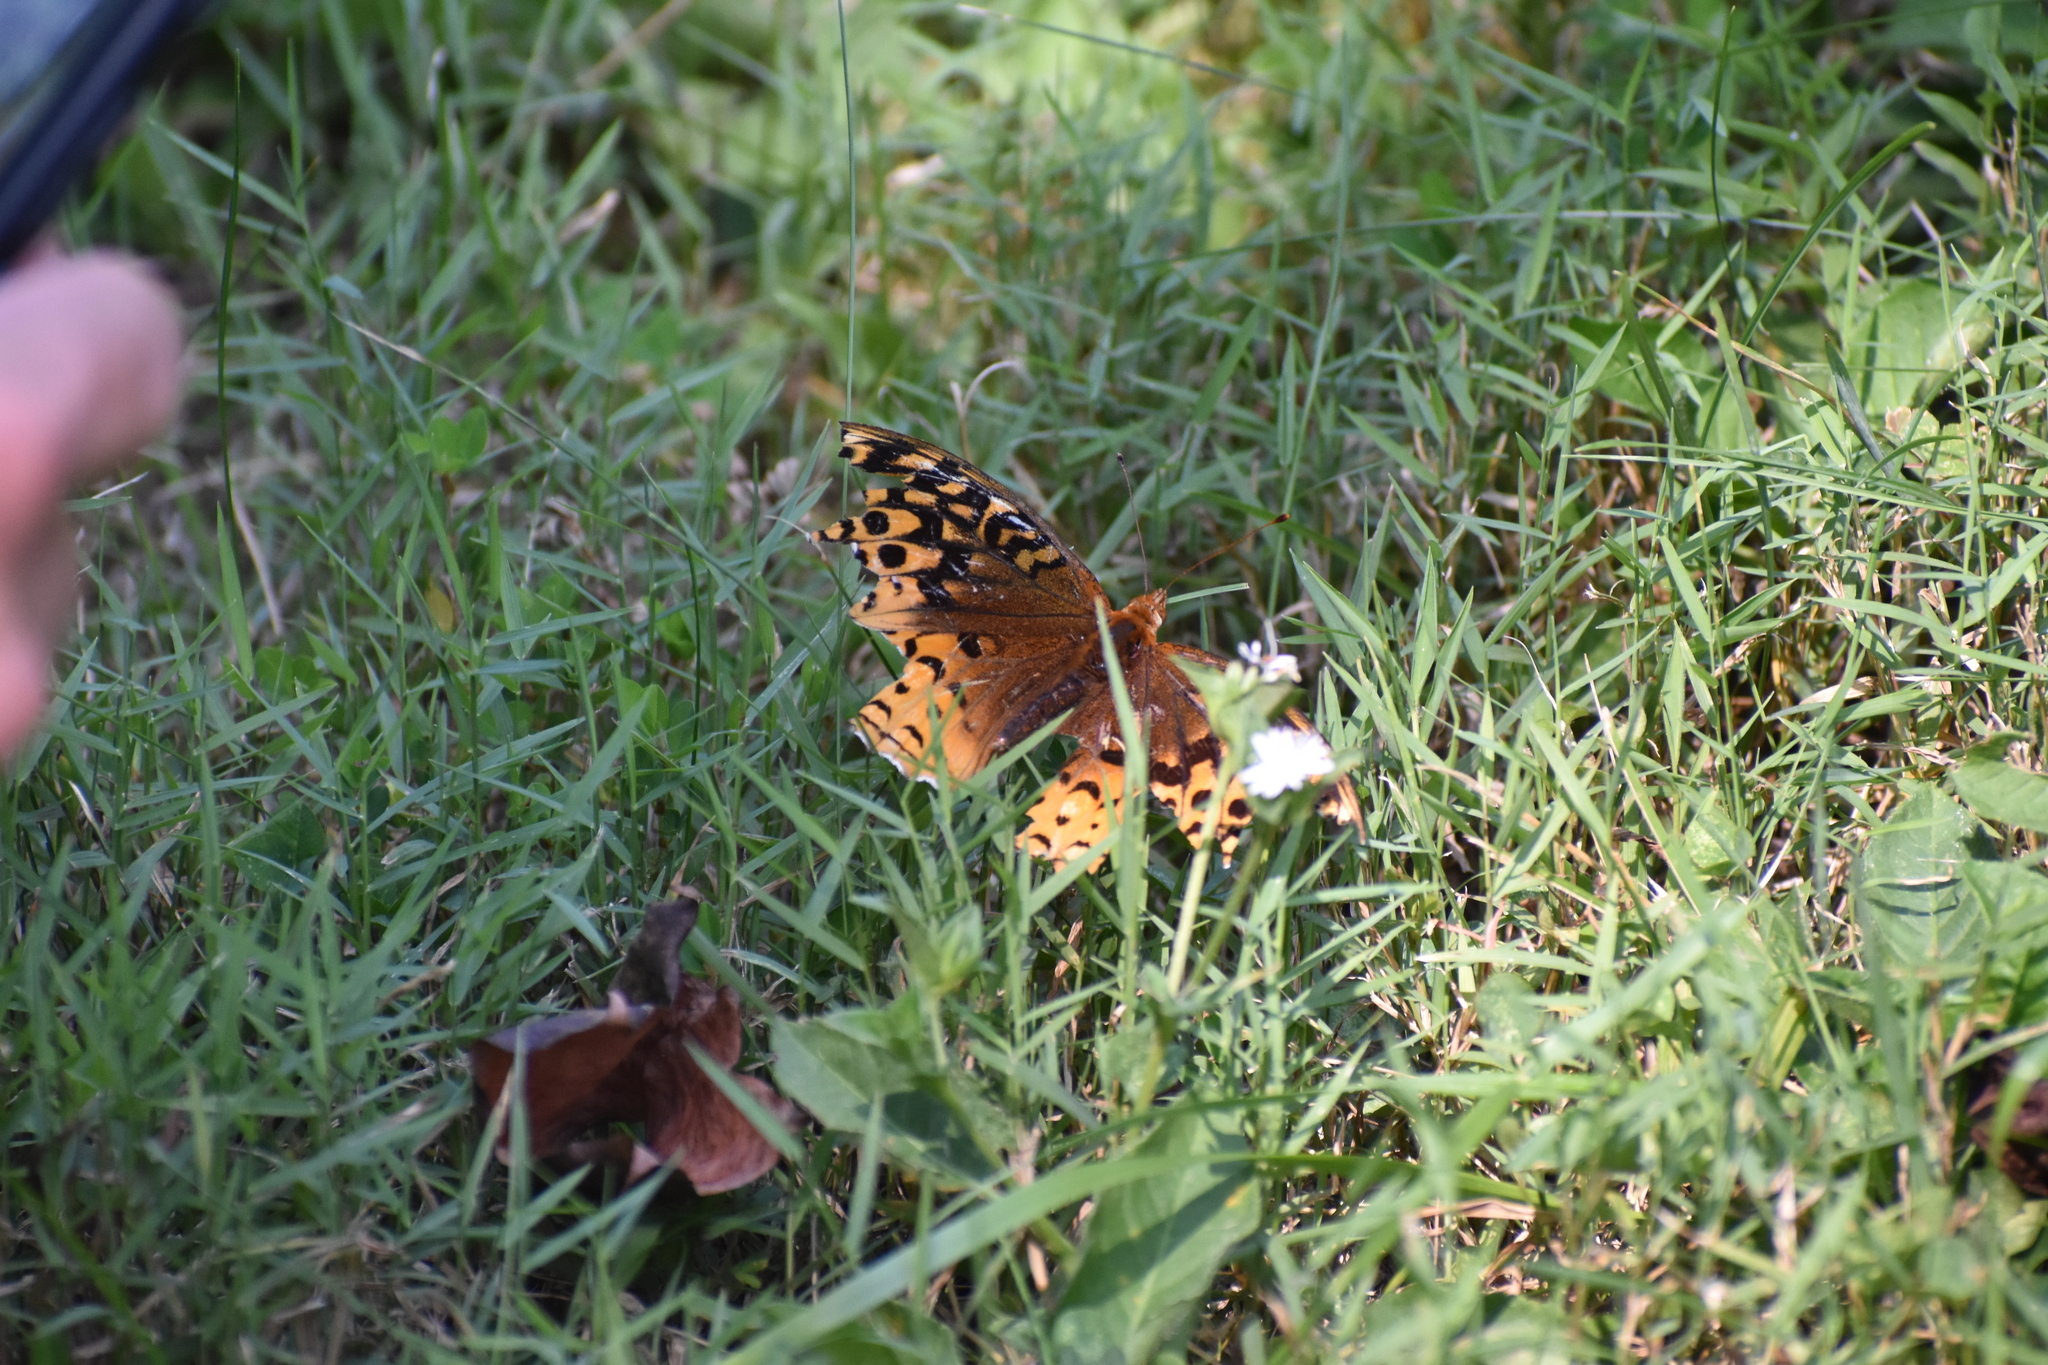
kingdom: Animalia
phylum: Arthropoda
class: Insecta
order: Lepidoptera
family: Nymphalidae
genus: Speyeria
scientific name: Speyeria cybele
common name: Great spangled fritillary
